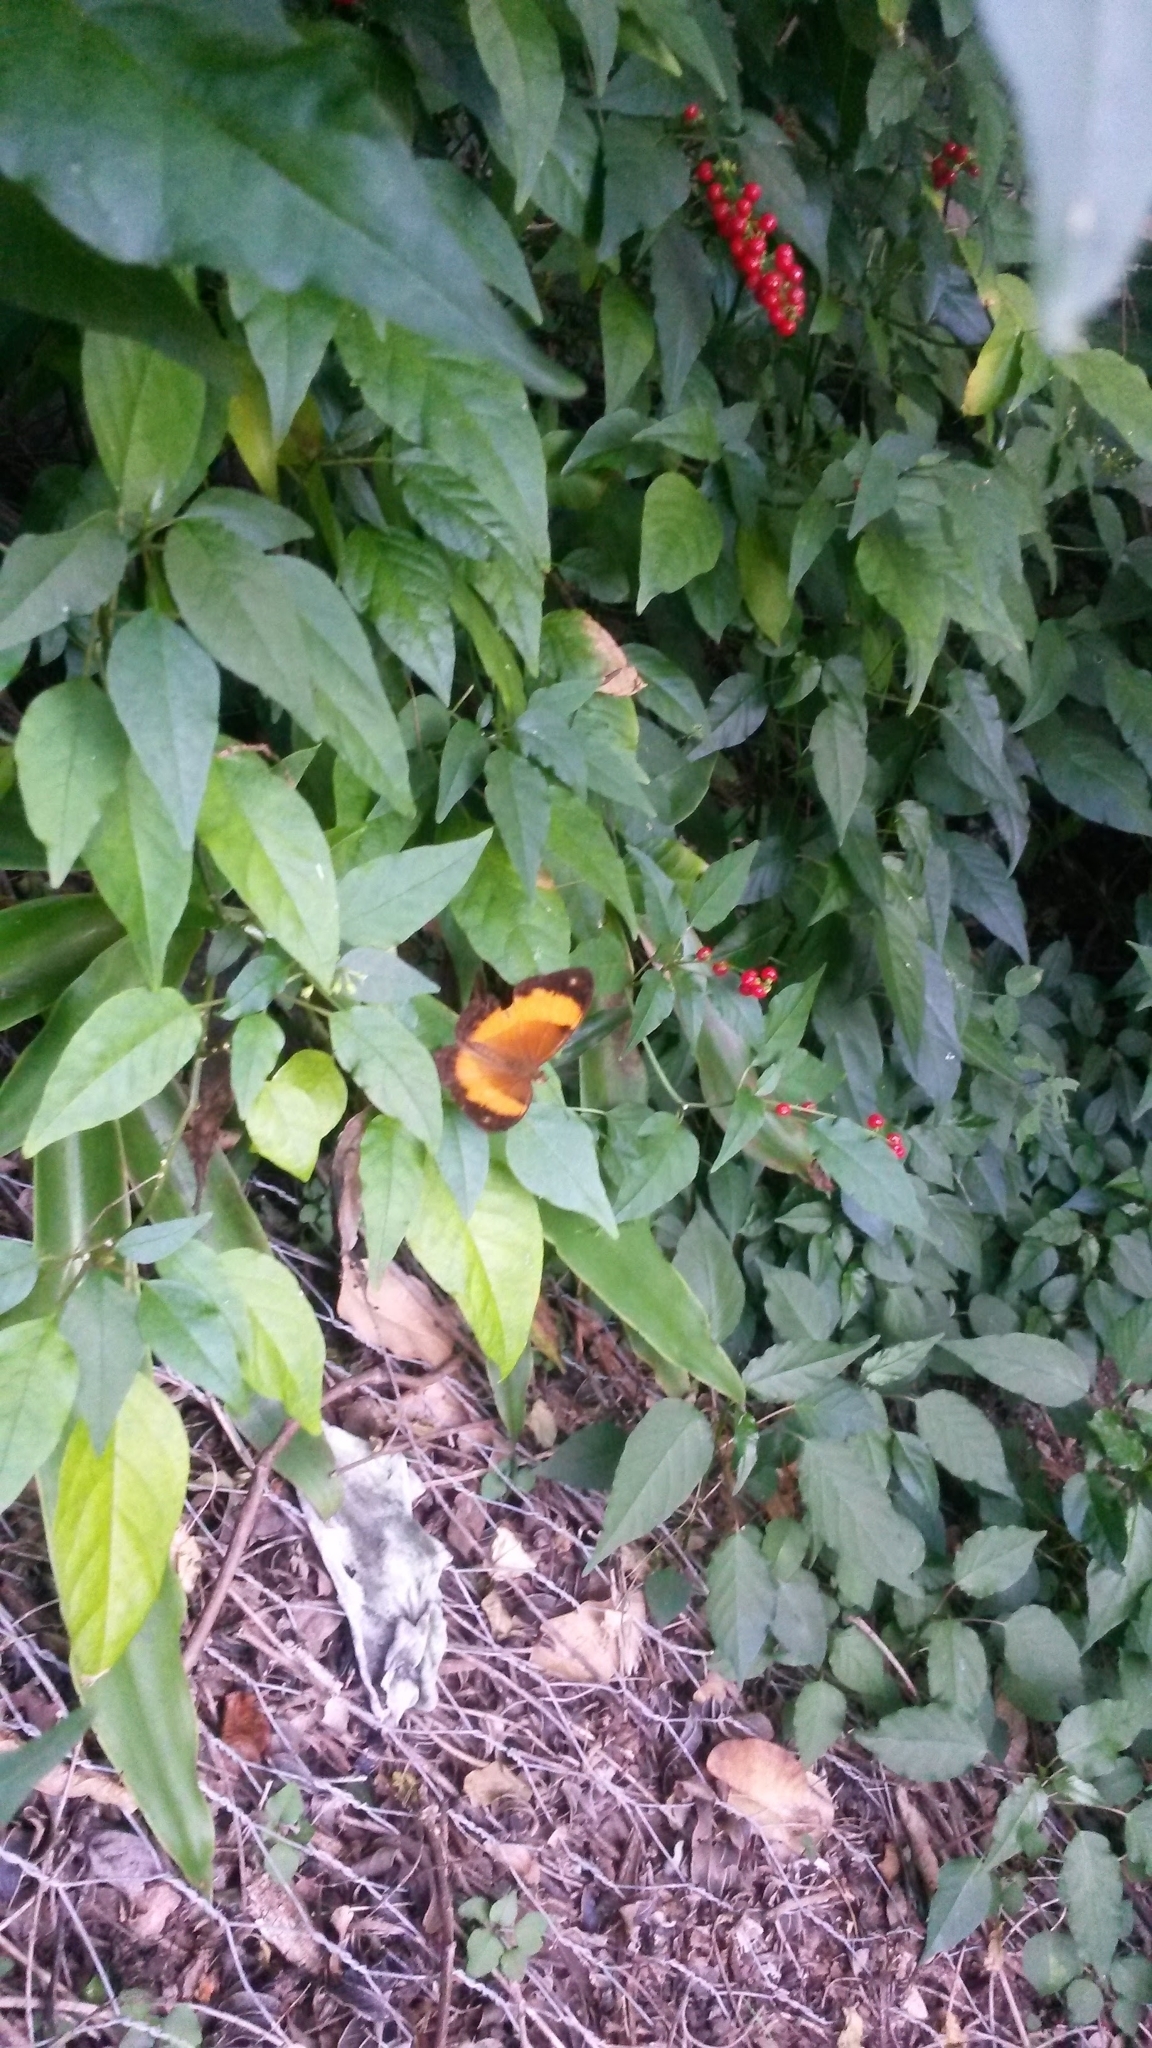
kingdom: Animalia
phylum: Arthropoda
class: Insecta
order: Lepidoptera
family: Nymphalidae
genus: Cupha
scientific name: Cupha prosope
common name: Bordered rustic
